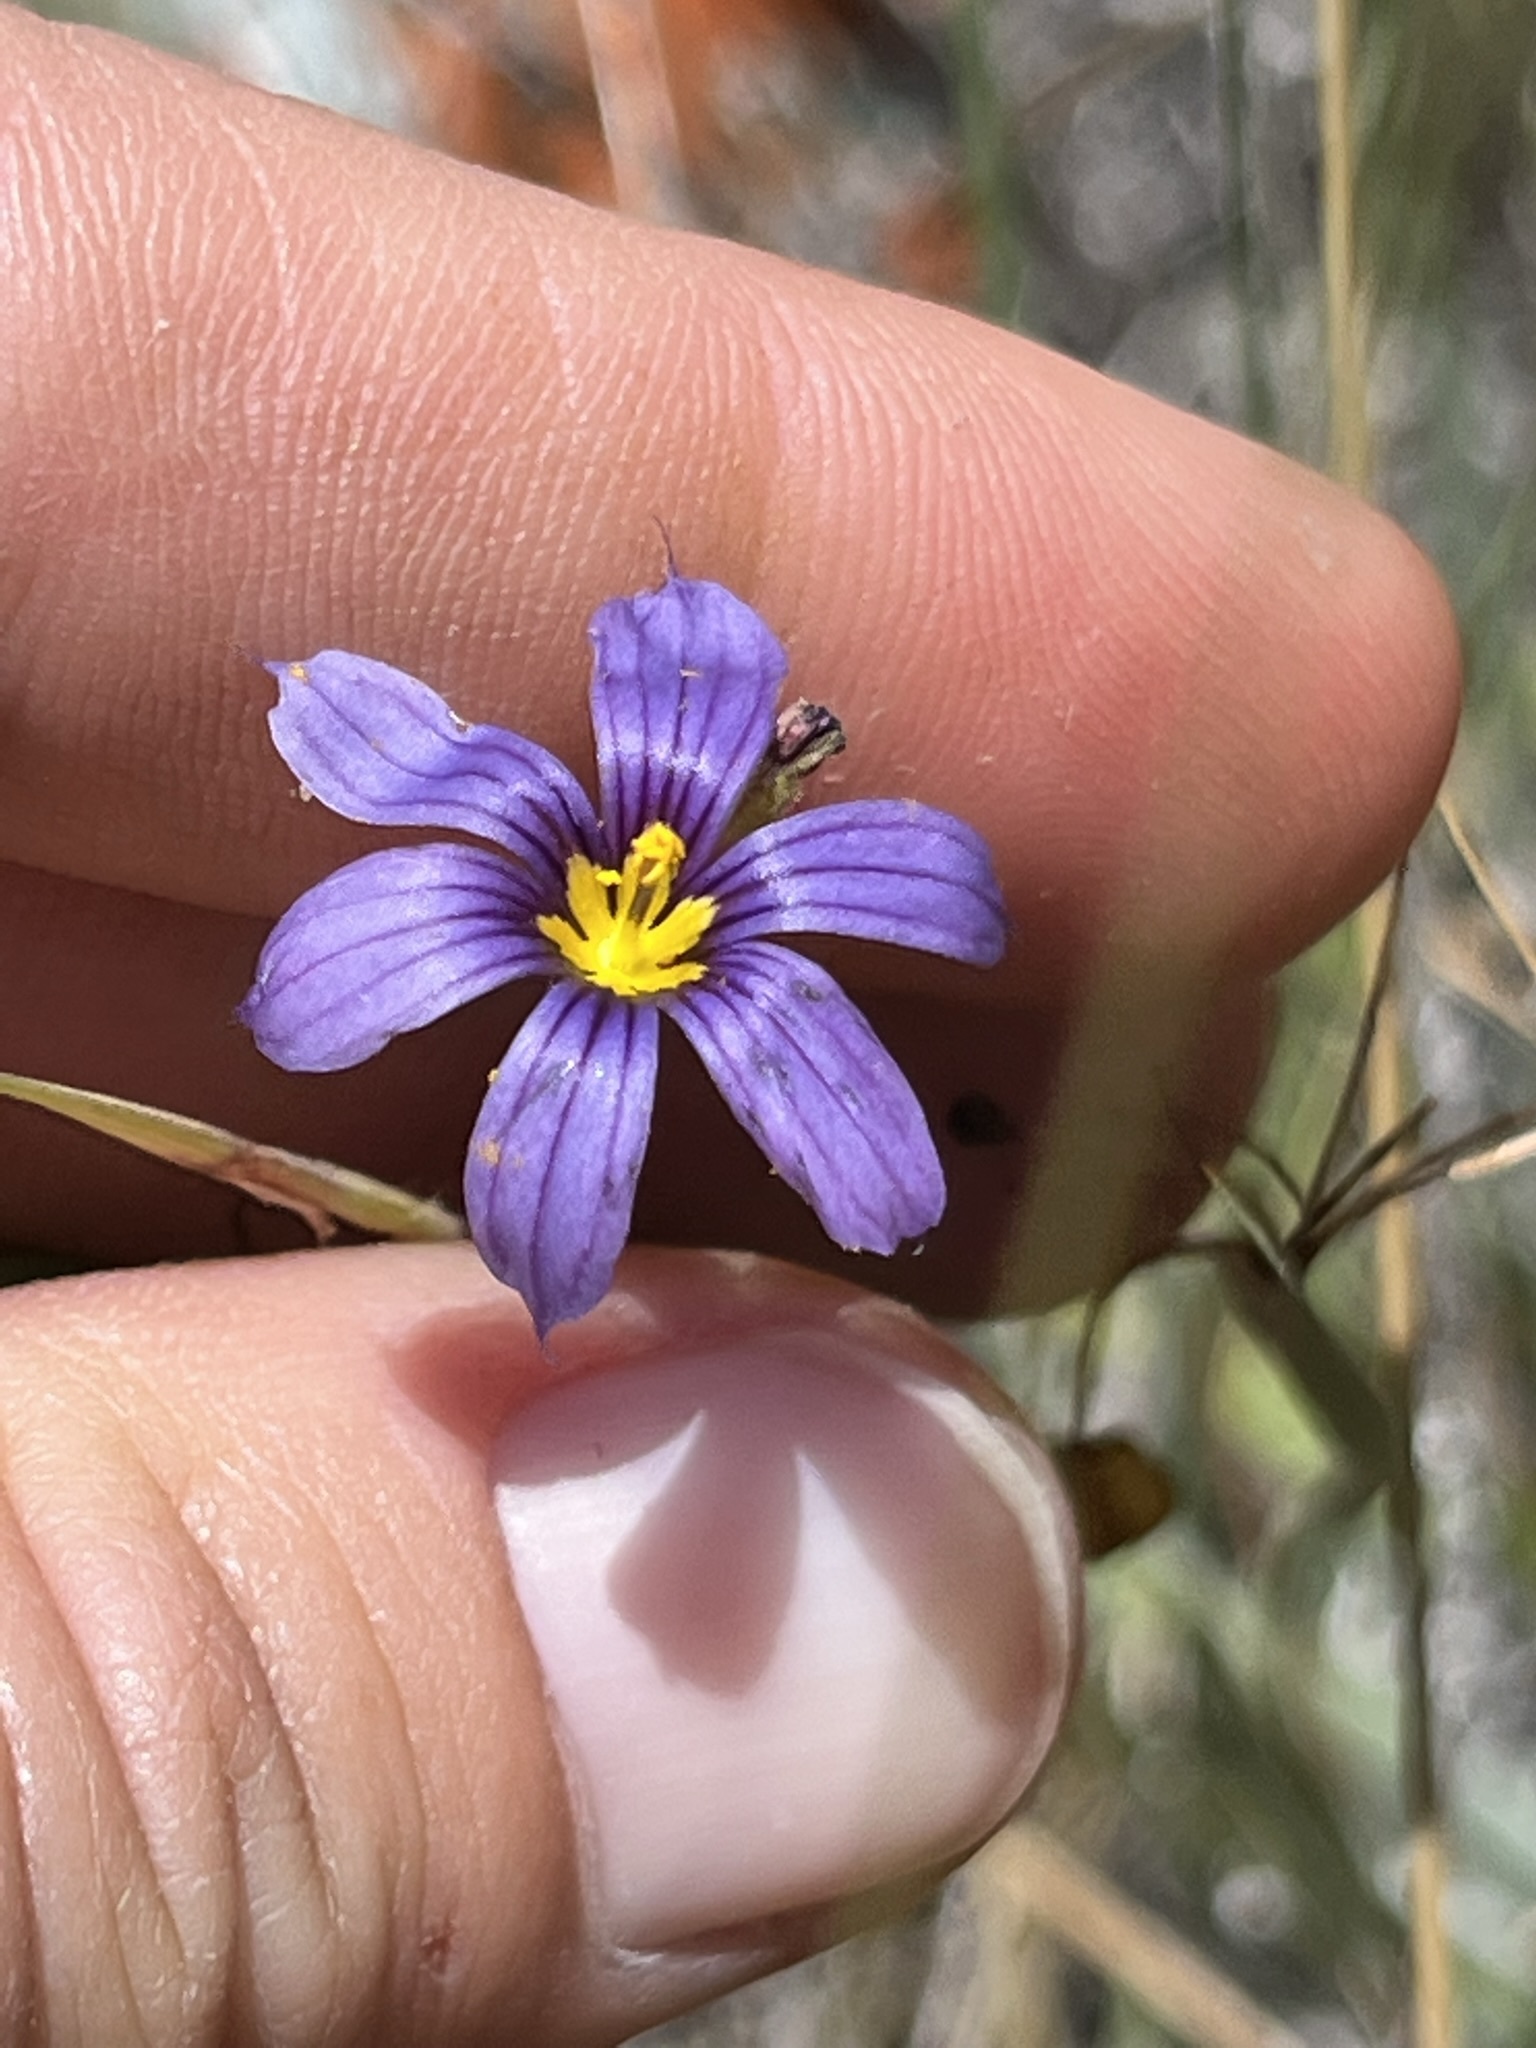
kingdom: Plantae
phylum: Tracheophyta
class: Liliopsida
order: Asparagales
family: Iridaceae
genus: Sisyrinchium
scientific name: Sisyrinchium bellum
